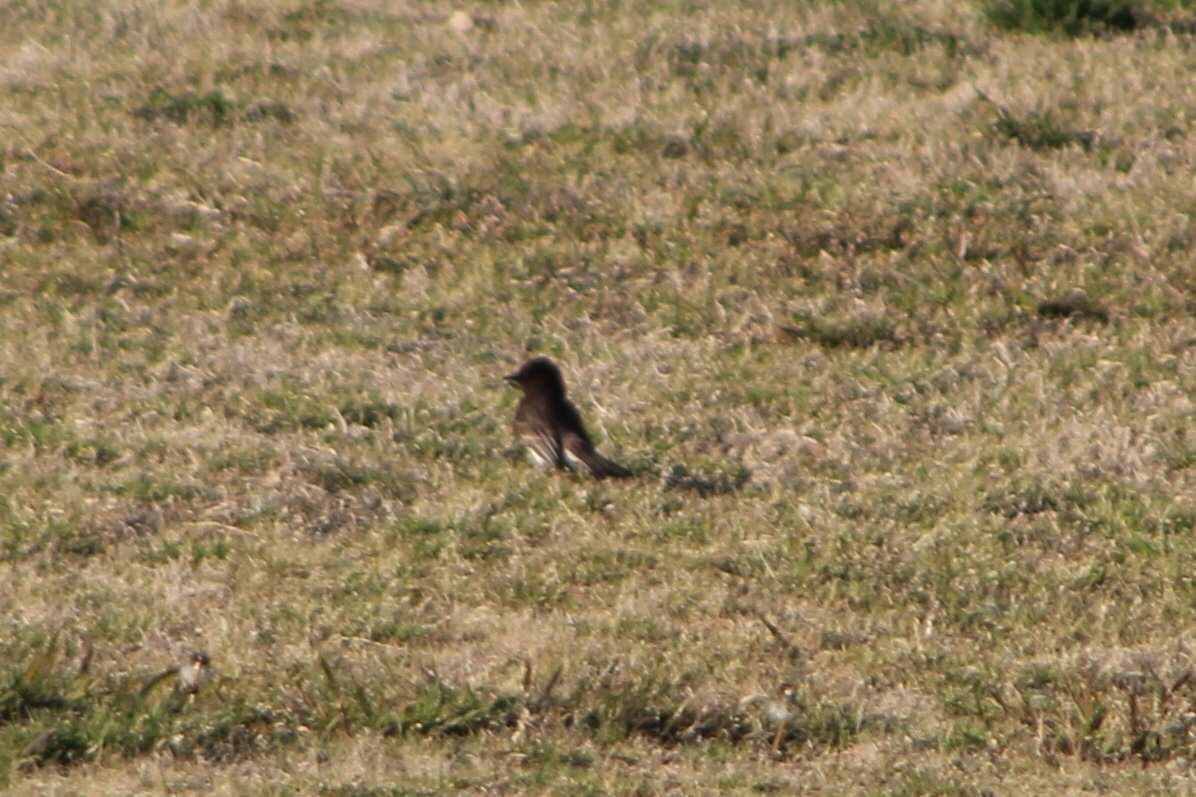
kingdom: Animalia
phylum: Chordata
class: Aves
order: Passeriformes
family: Tyrannidae
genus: Sayornis
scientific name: Sayornis nigricans
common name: Black phoebe
